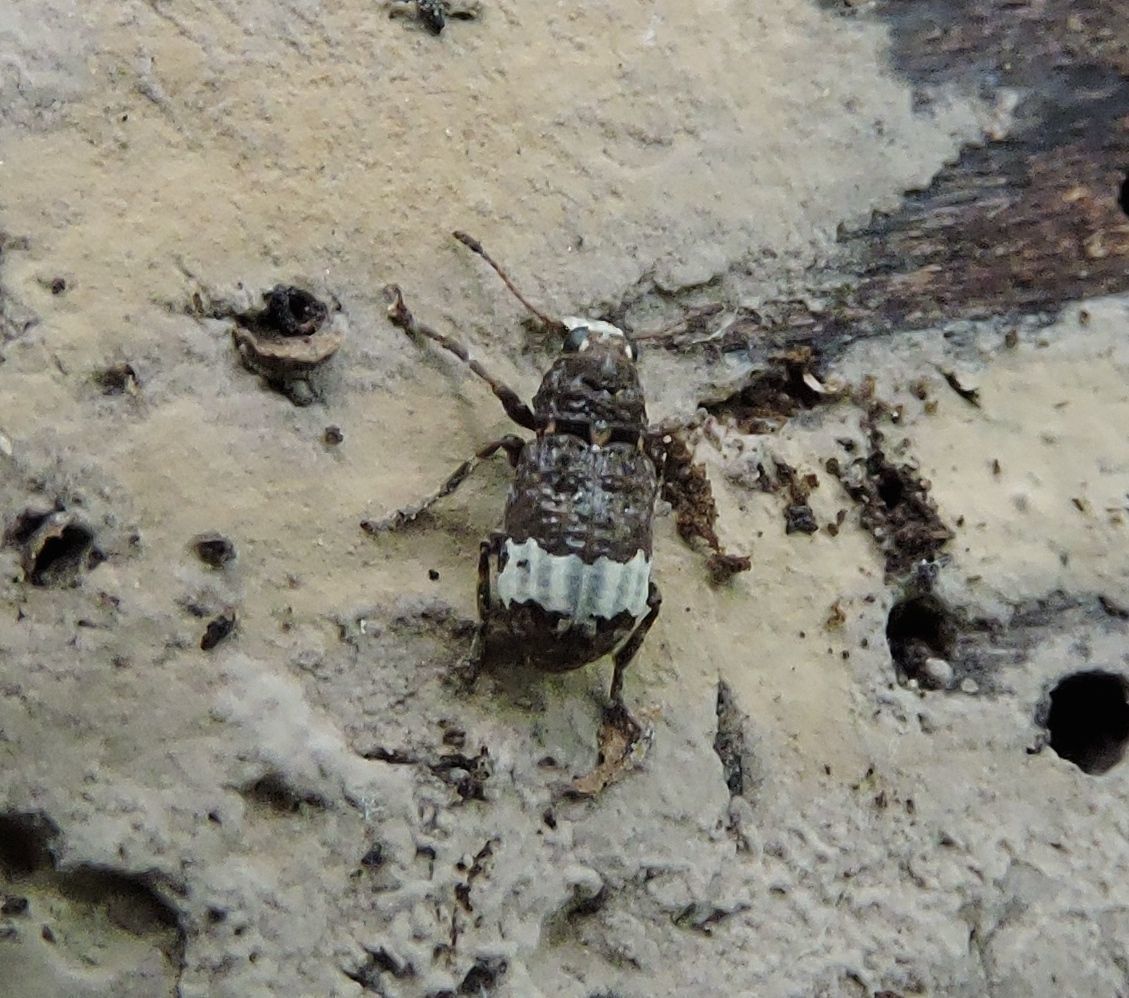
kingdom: Animalia
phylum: Arthropoda
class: Insecta
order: Coleoptera
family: Anthribidae
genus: Eurymycter
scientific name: Eurymycter fasciatus
